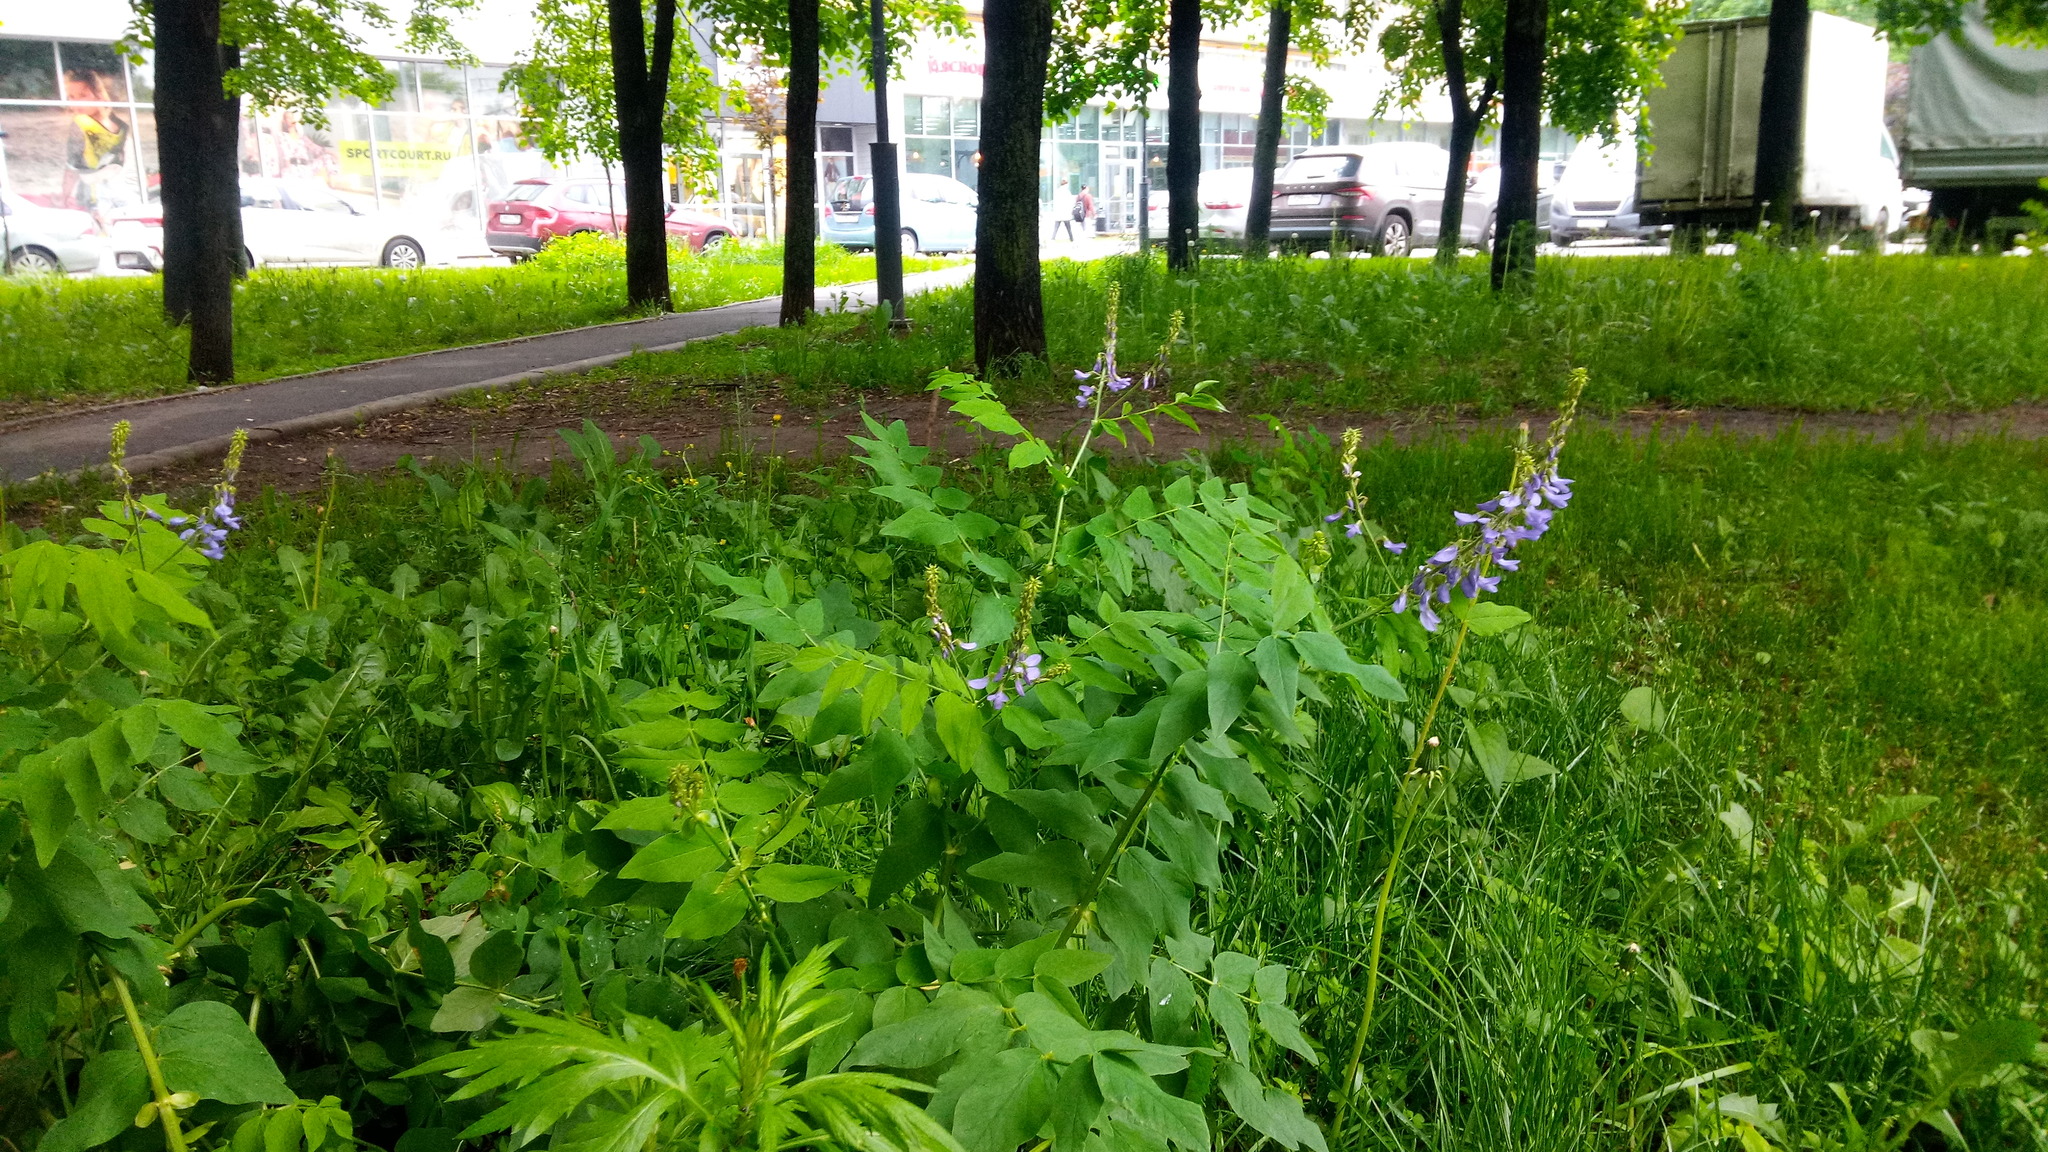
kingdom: Plantae
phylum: Tracheophyta
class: Magnoliopsida
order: Fabales
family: Fabaceae
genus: Galega
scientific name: Galega orientalis
